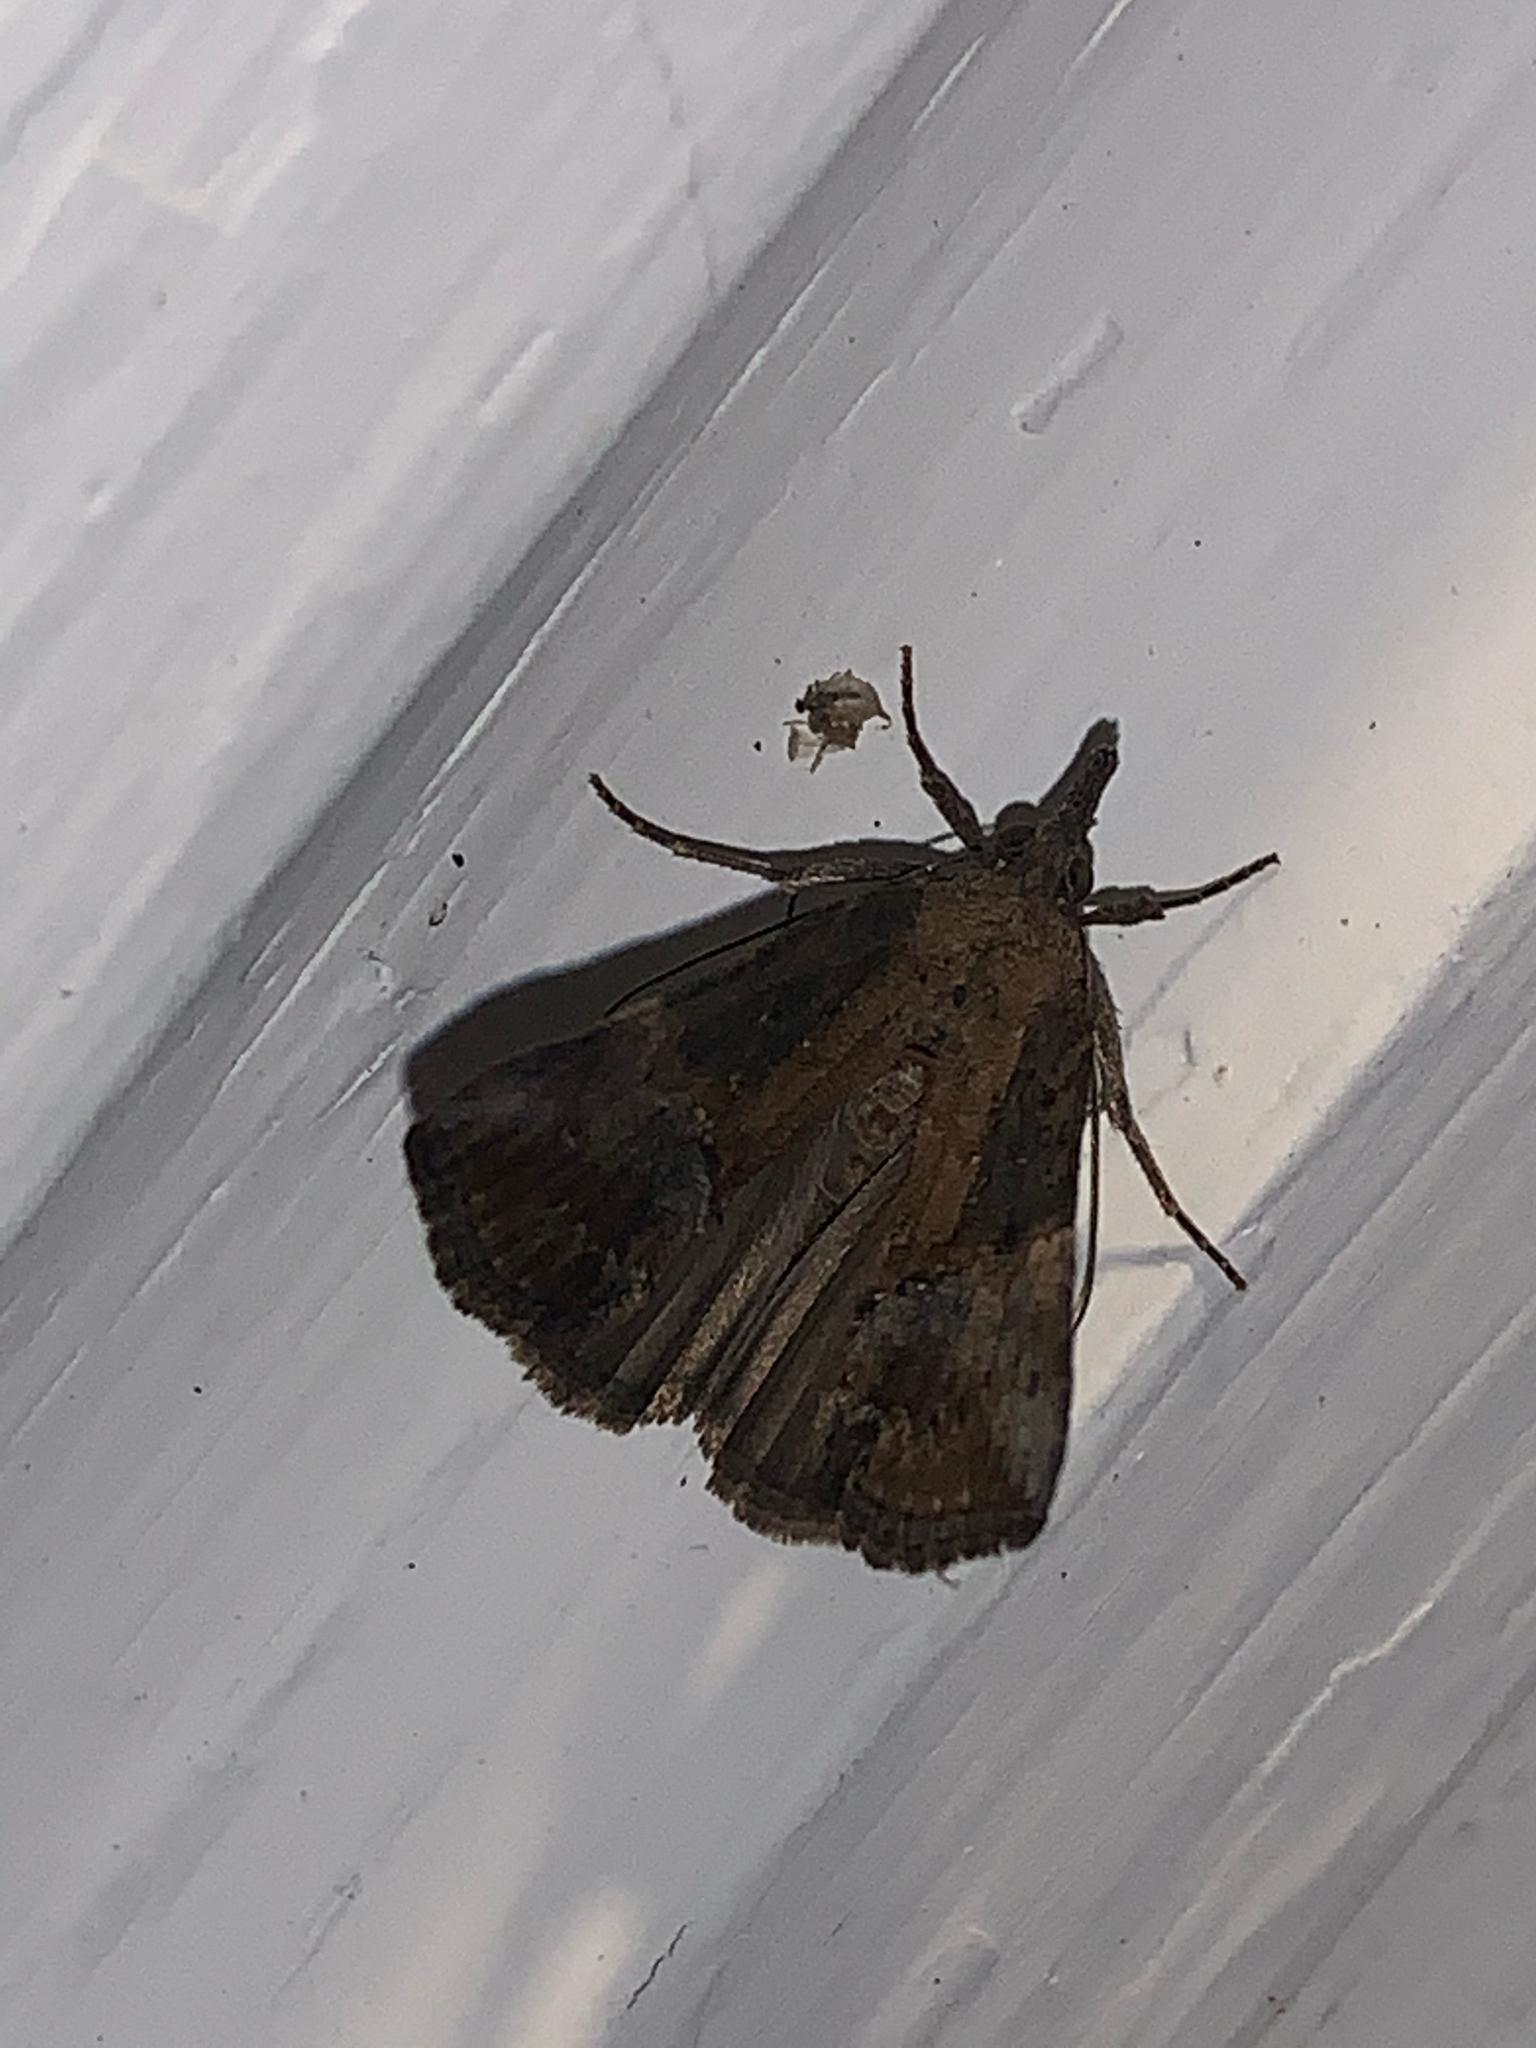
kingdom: Animalia
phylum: Arthropoda
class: Insecta
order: Lepidoptera
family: Erebidae
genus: Hypena
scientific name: Hypena scabra
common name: Green cloverworm
